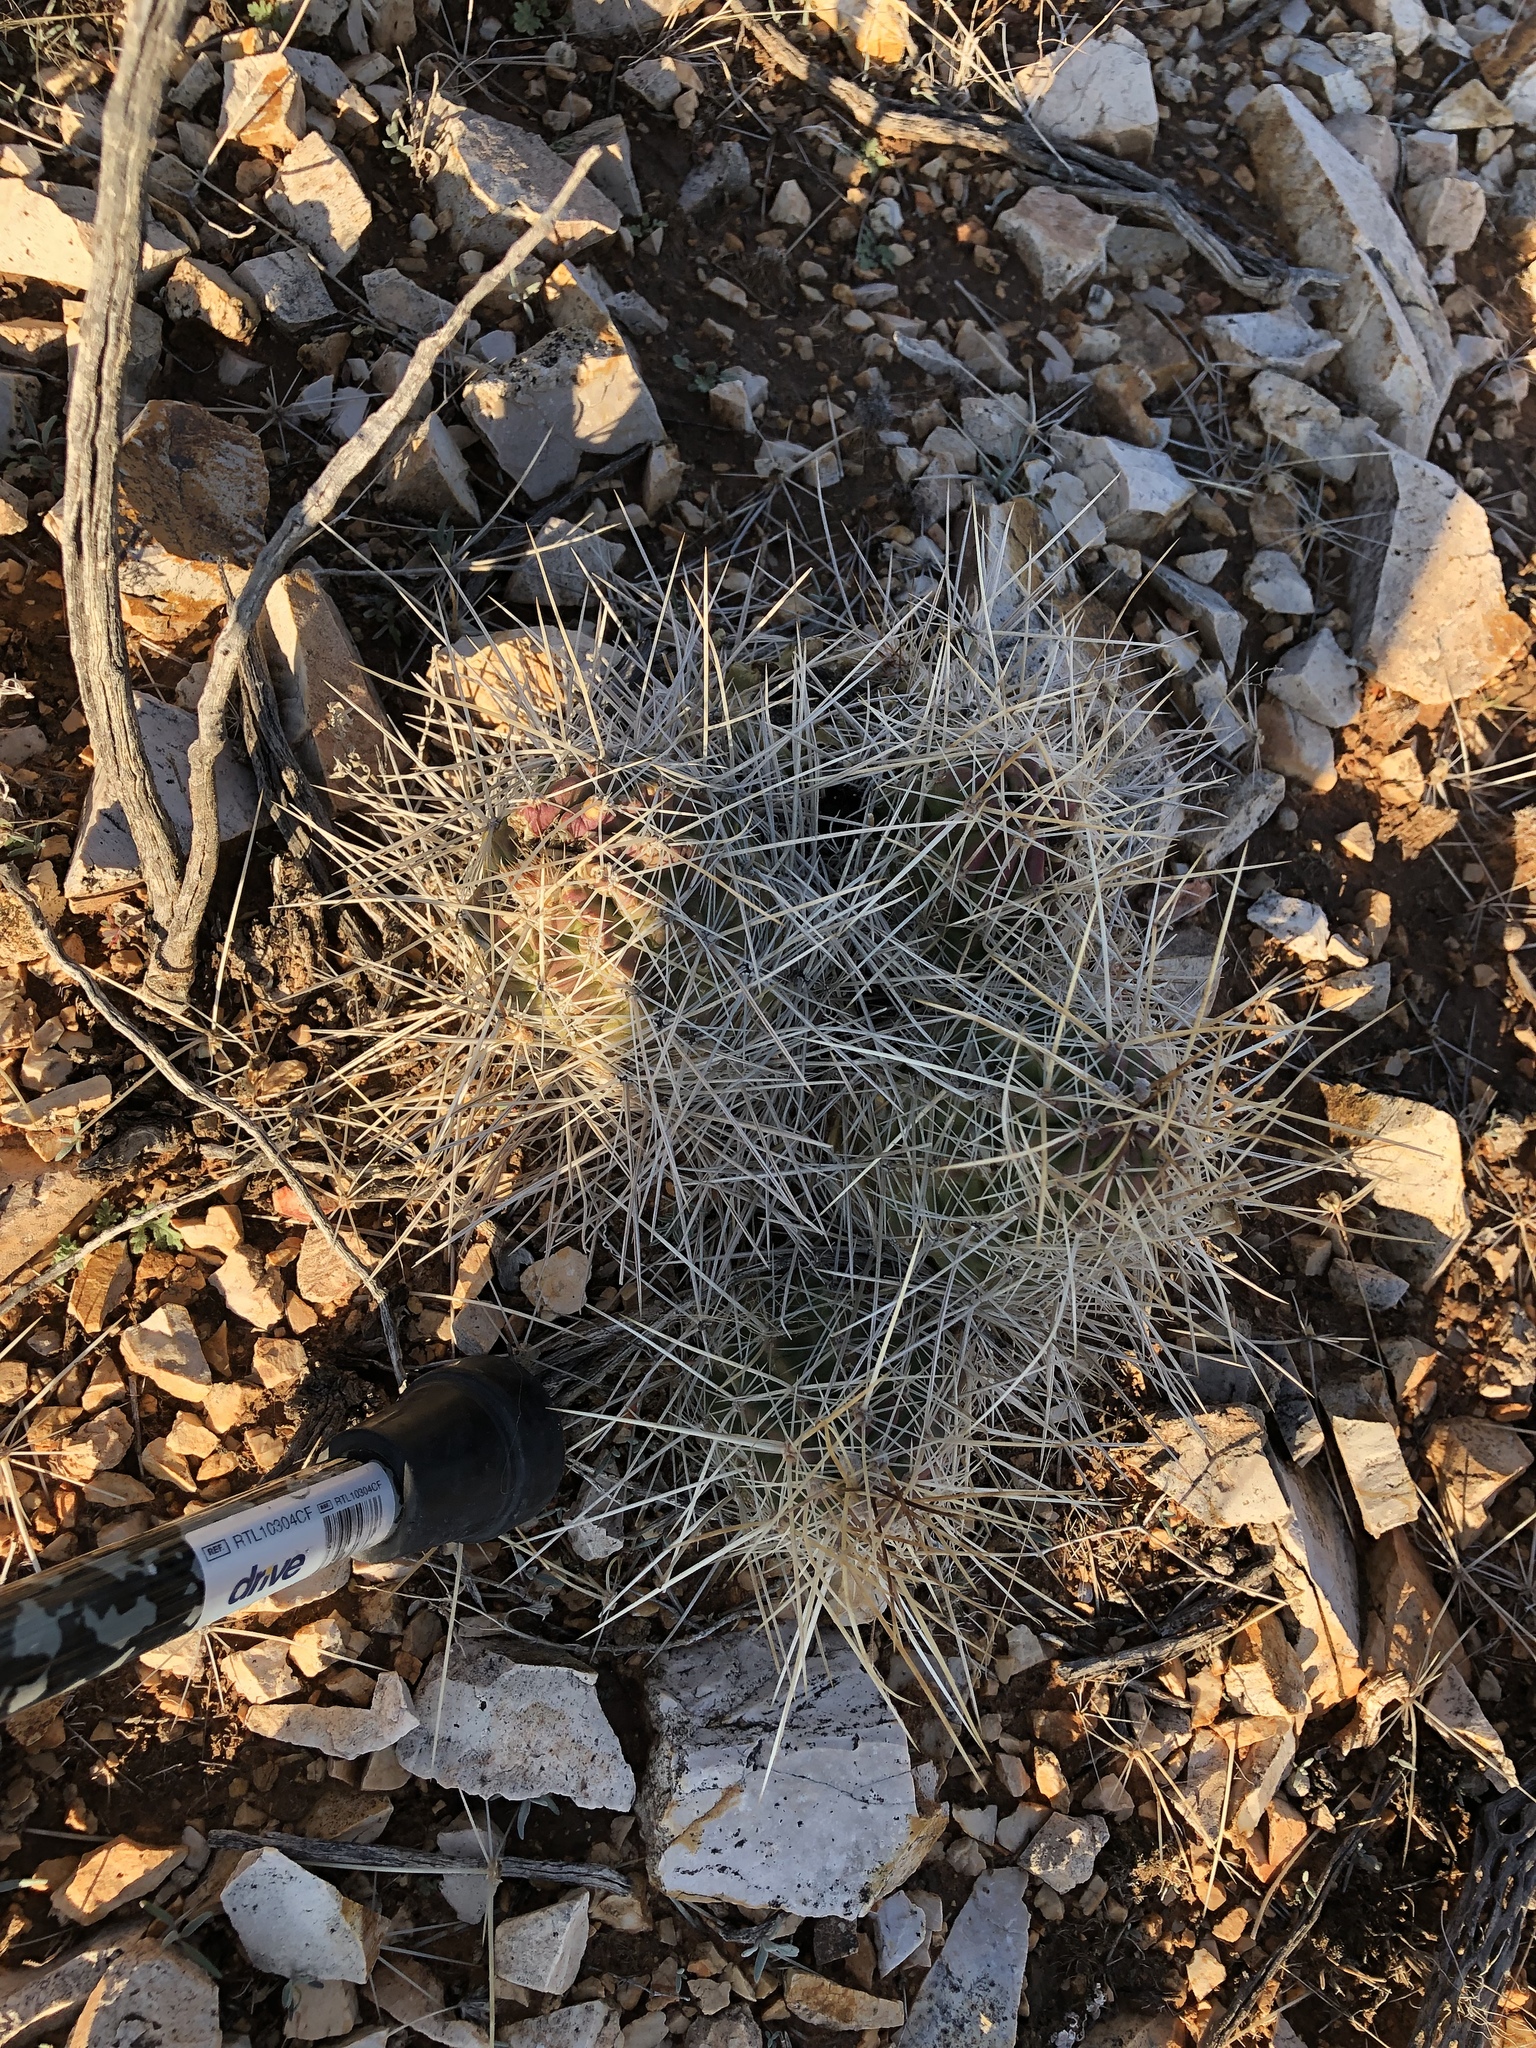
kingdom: Plantae
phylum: Tracheophyta
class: Magnoliopsida
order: Caryophyllales
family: Cactaceae
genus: Echinocereus
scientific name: Echinocereus coccineus
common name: Scarlet hedgehog cactus
